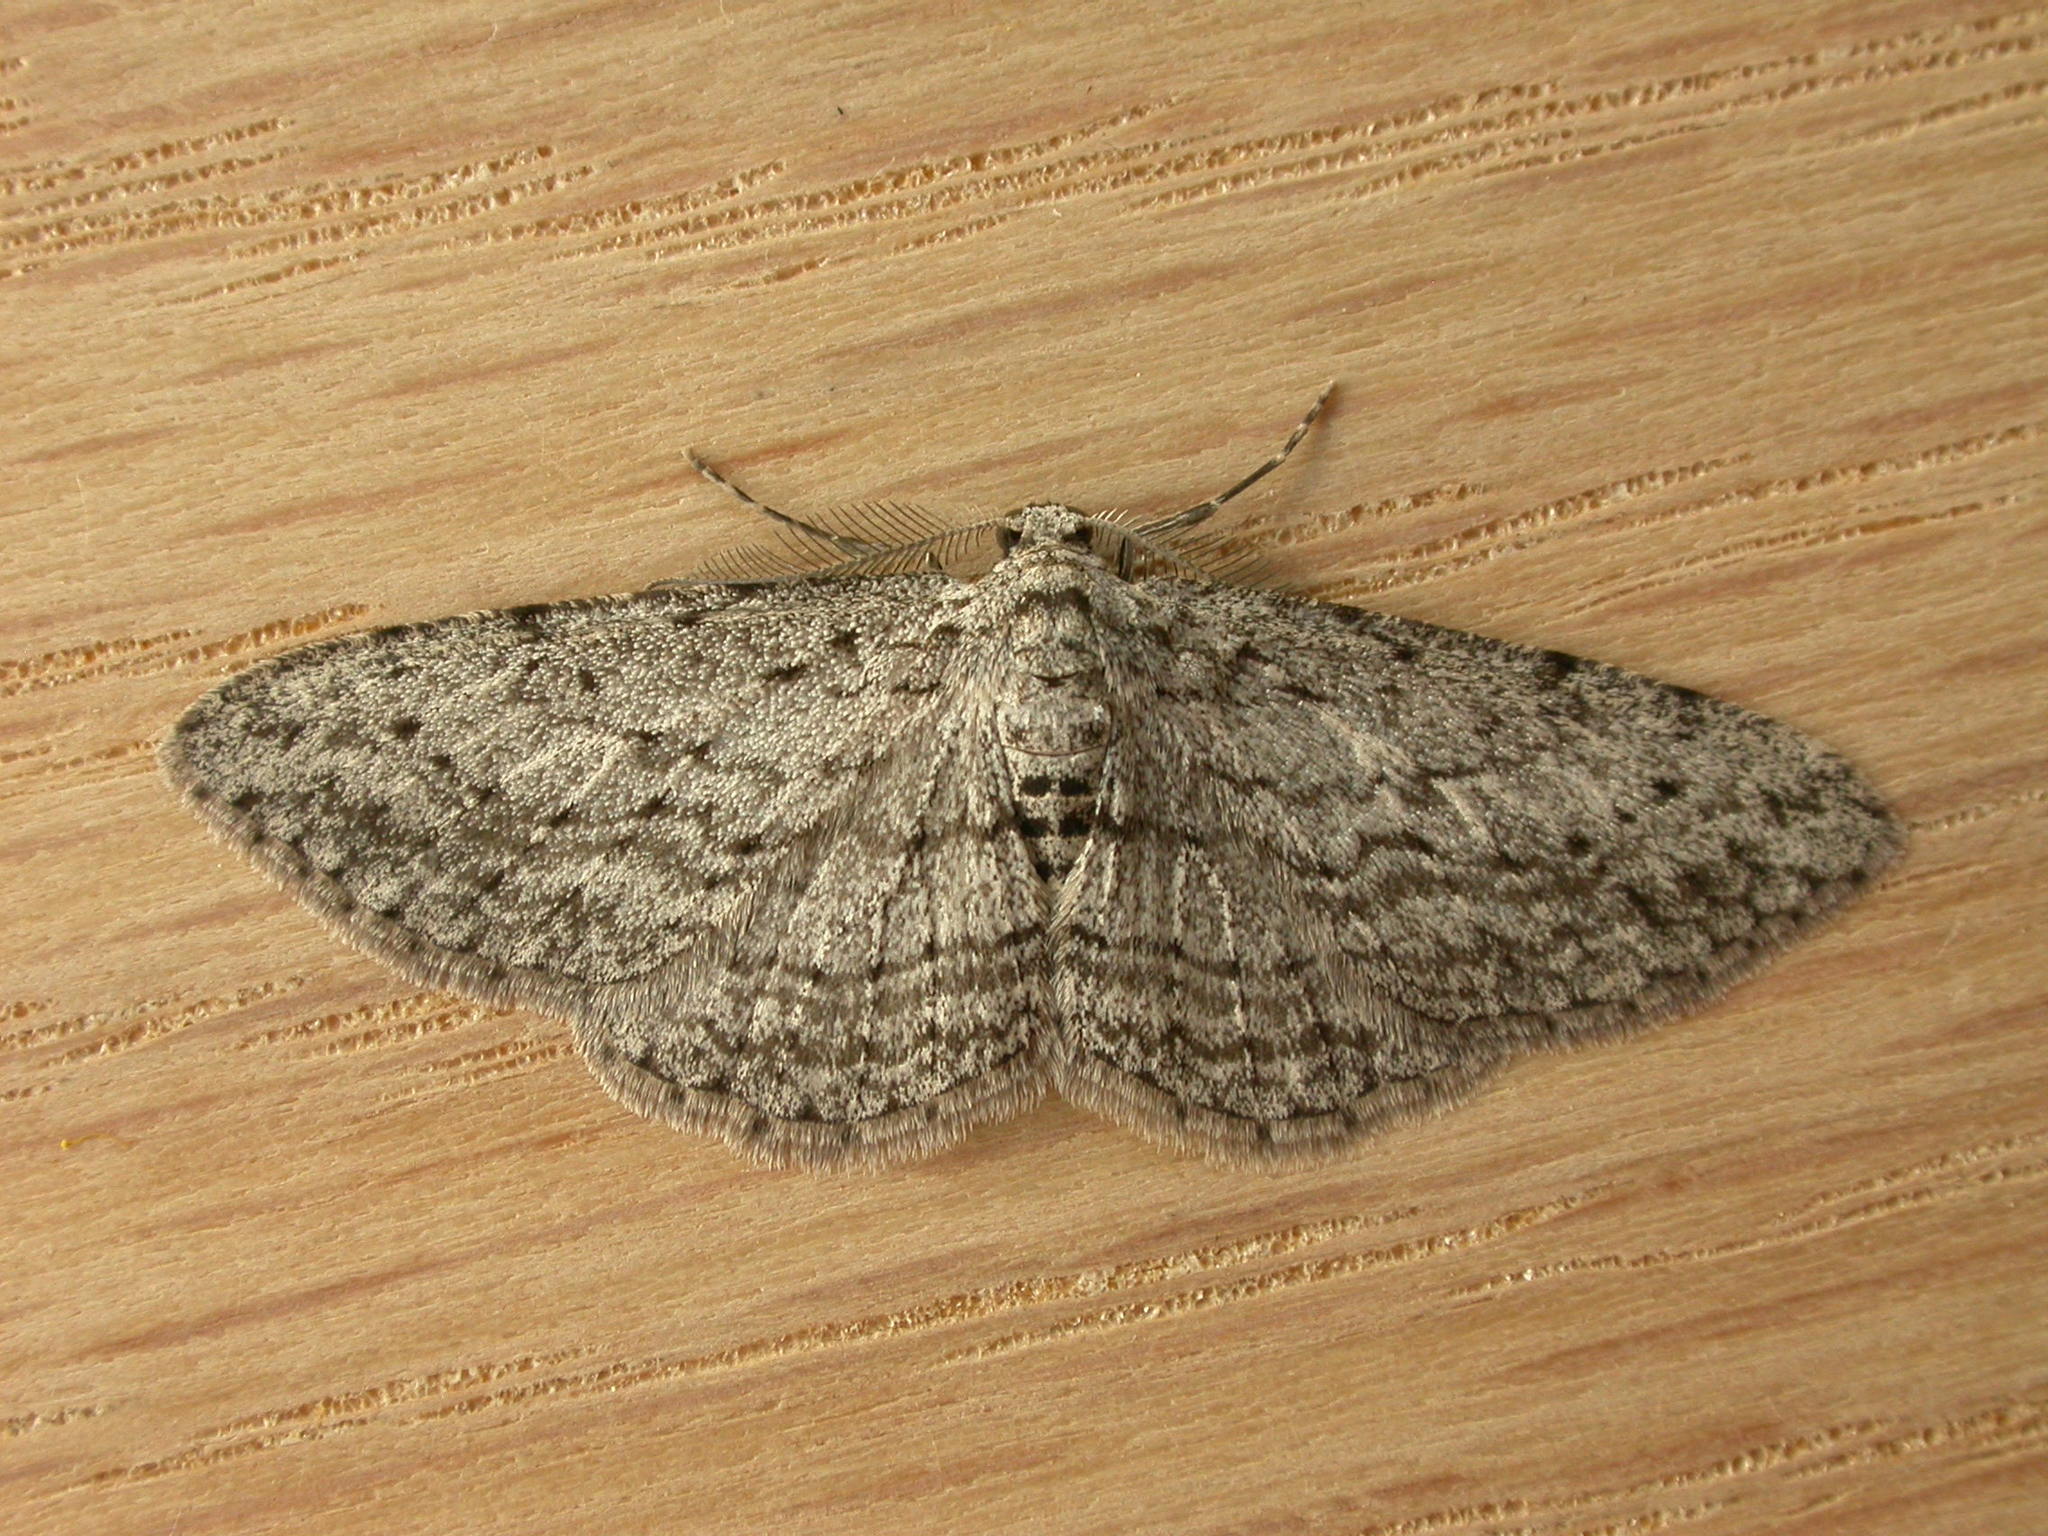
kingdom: Animalia
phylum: Arthropoda
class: Insecta
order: Lepidoptera
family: Geometridae
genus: Phelotis
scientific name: Phelotis cognata
